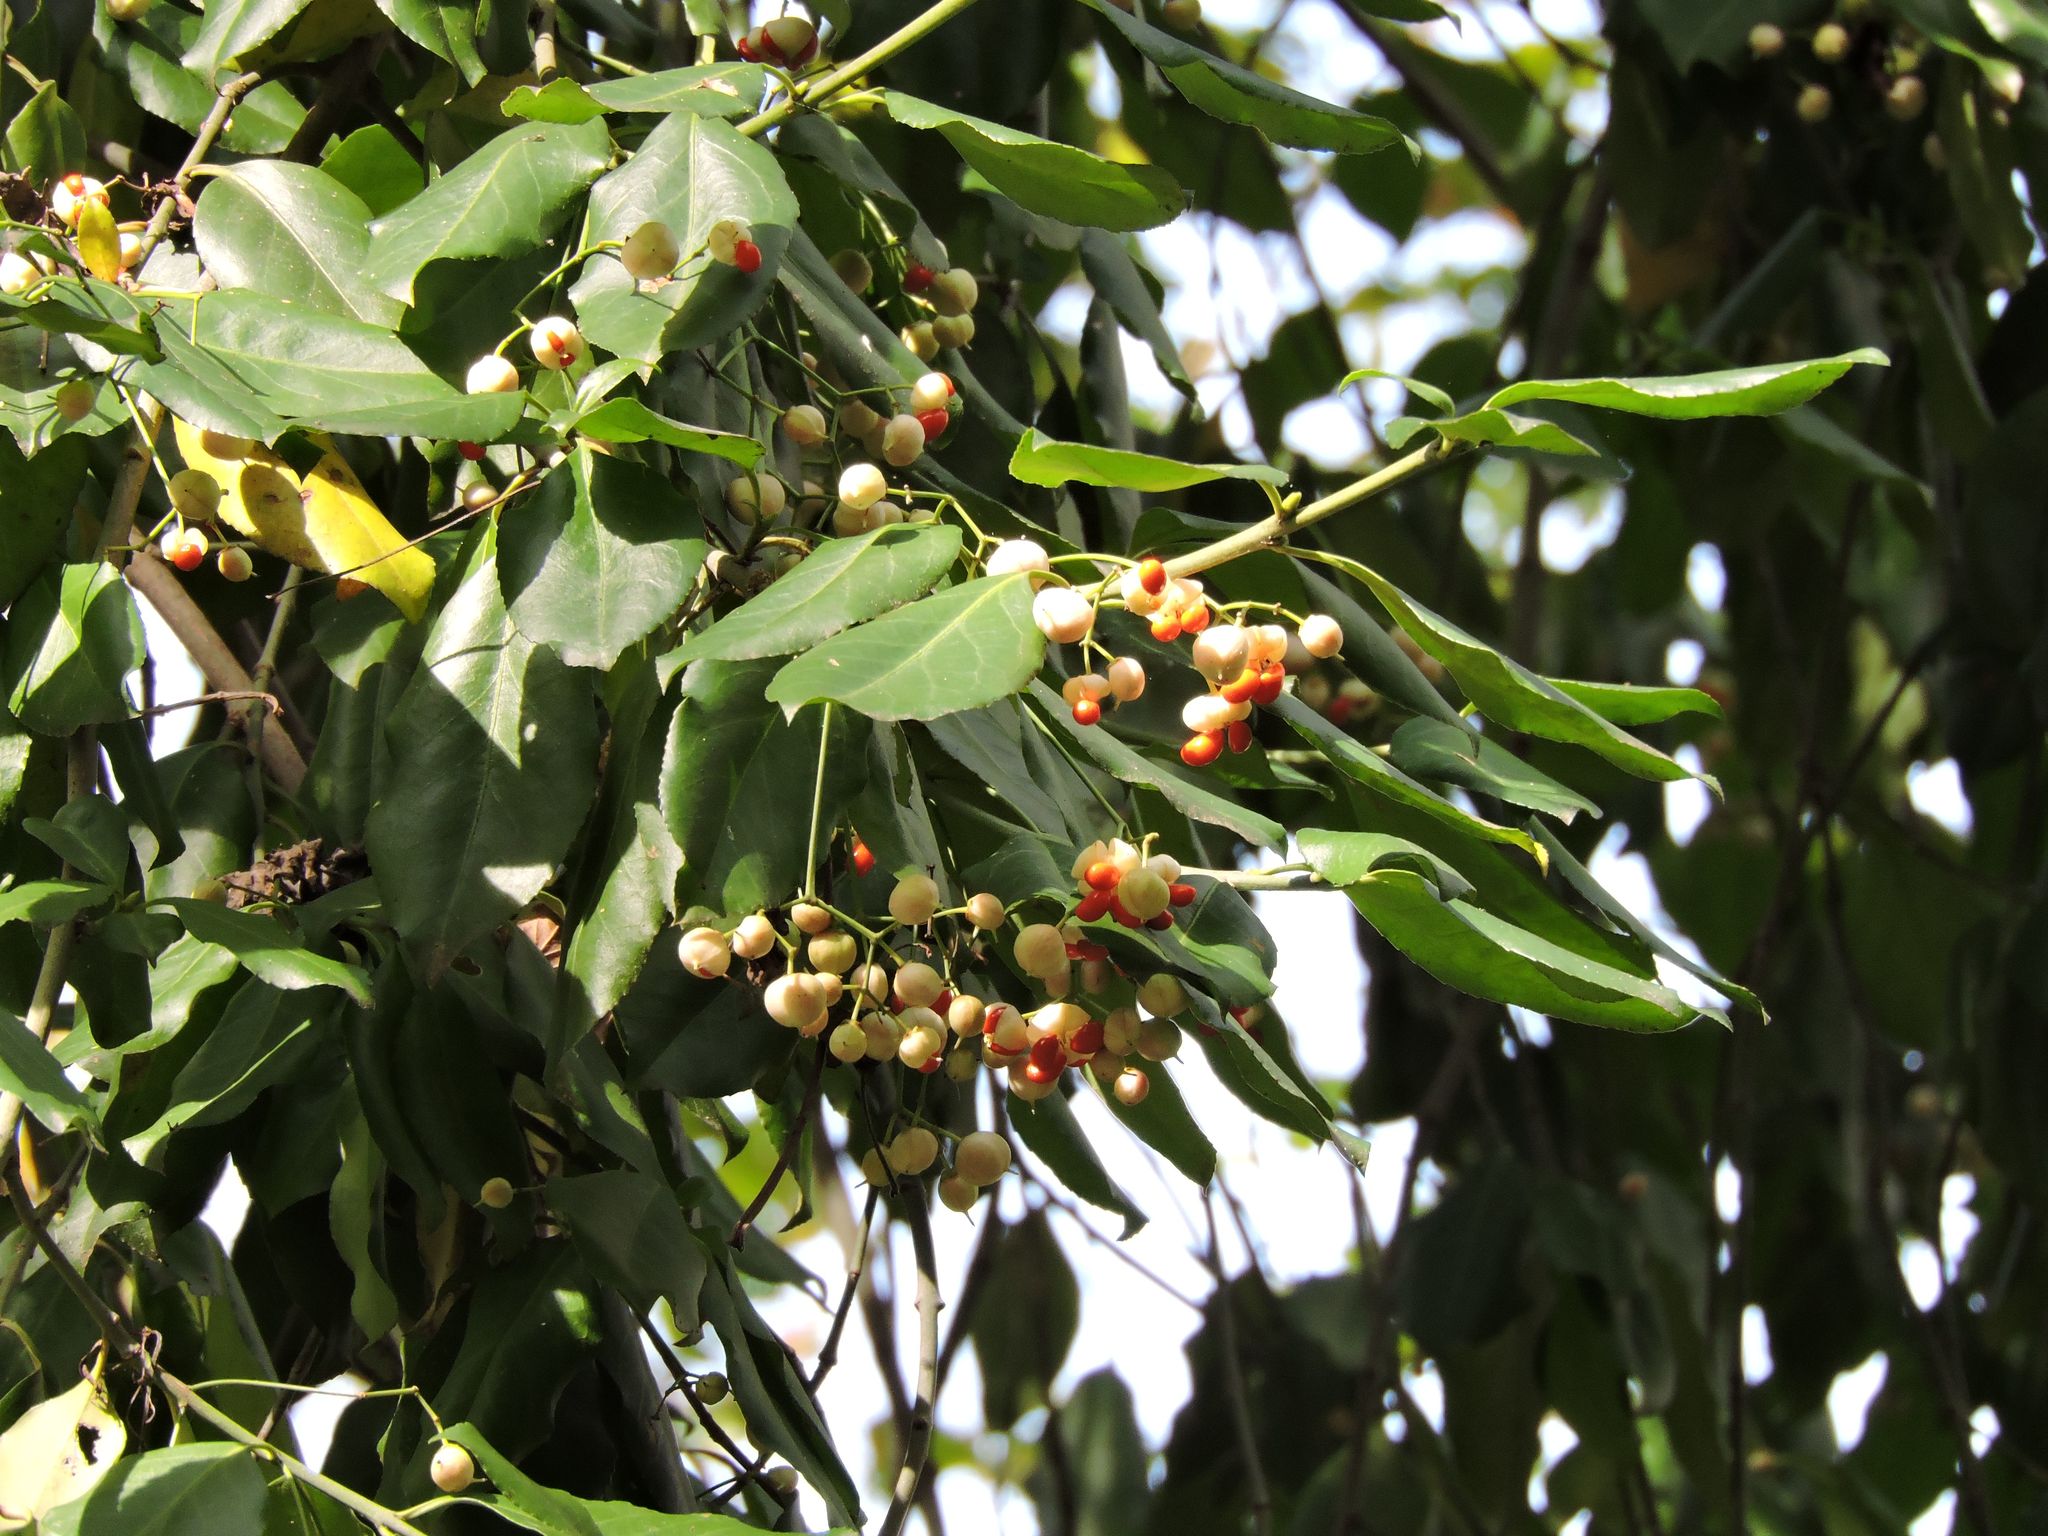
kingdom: Plantae
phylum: Tracheophyta
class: Magnoliopsida
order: Celastrales
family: Celastraceae
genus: Euonymus
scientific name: Euonymus fortunei
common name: Climbing euonymus
